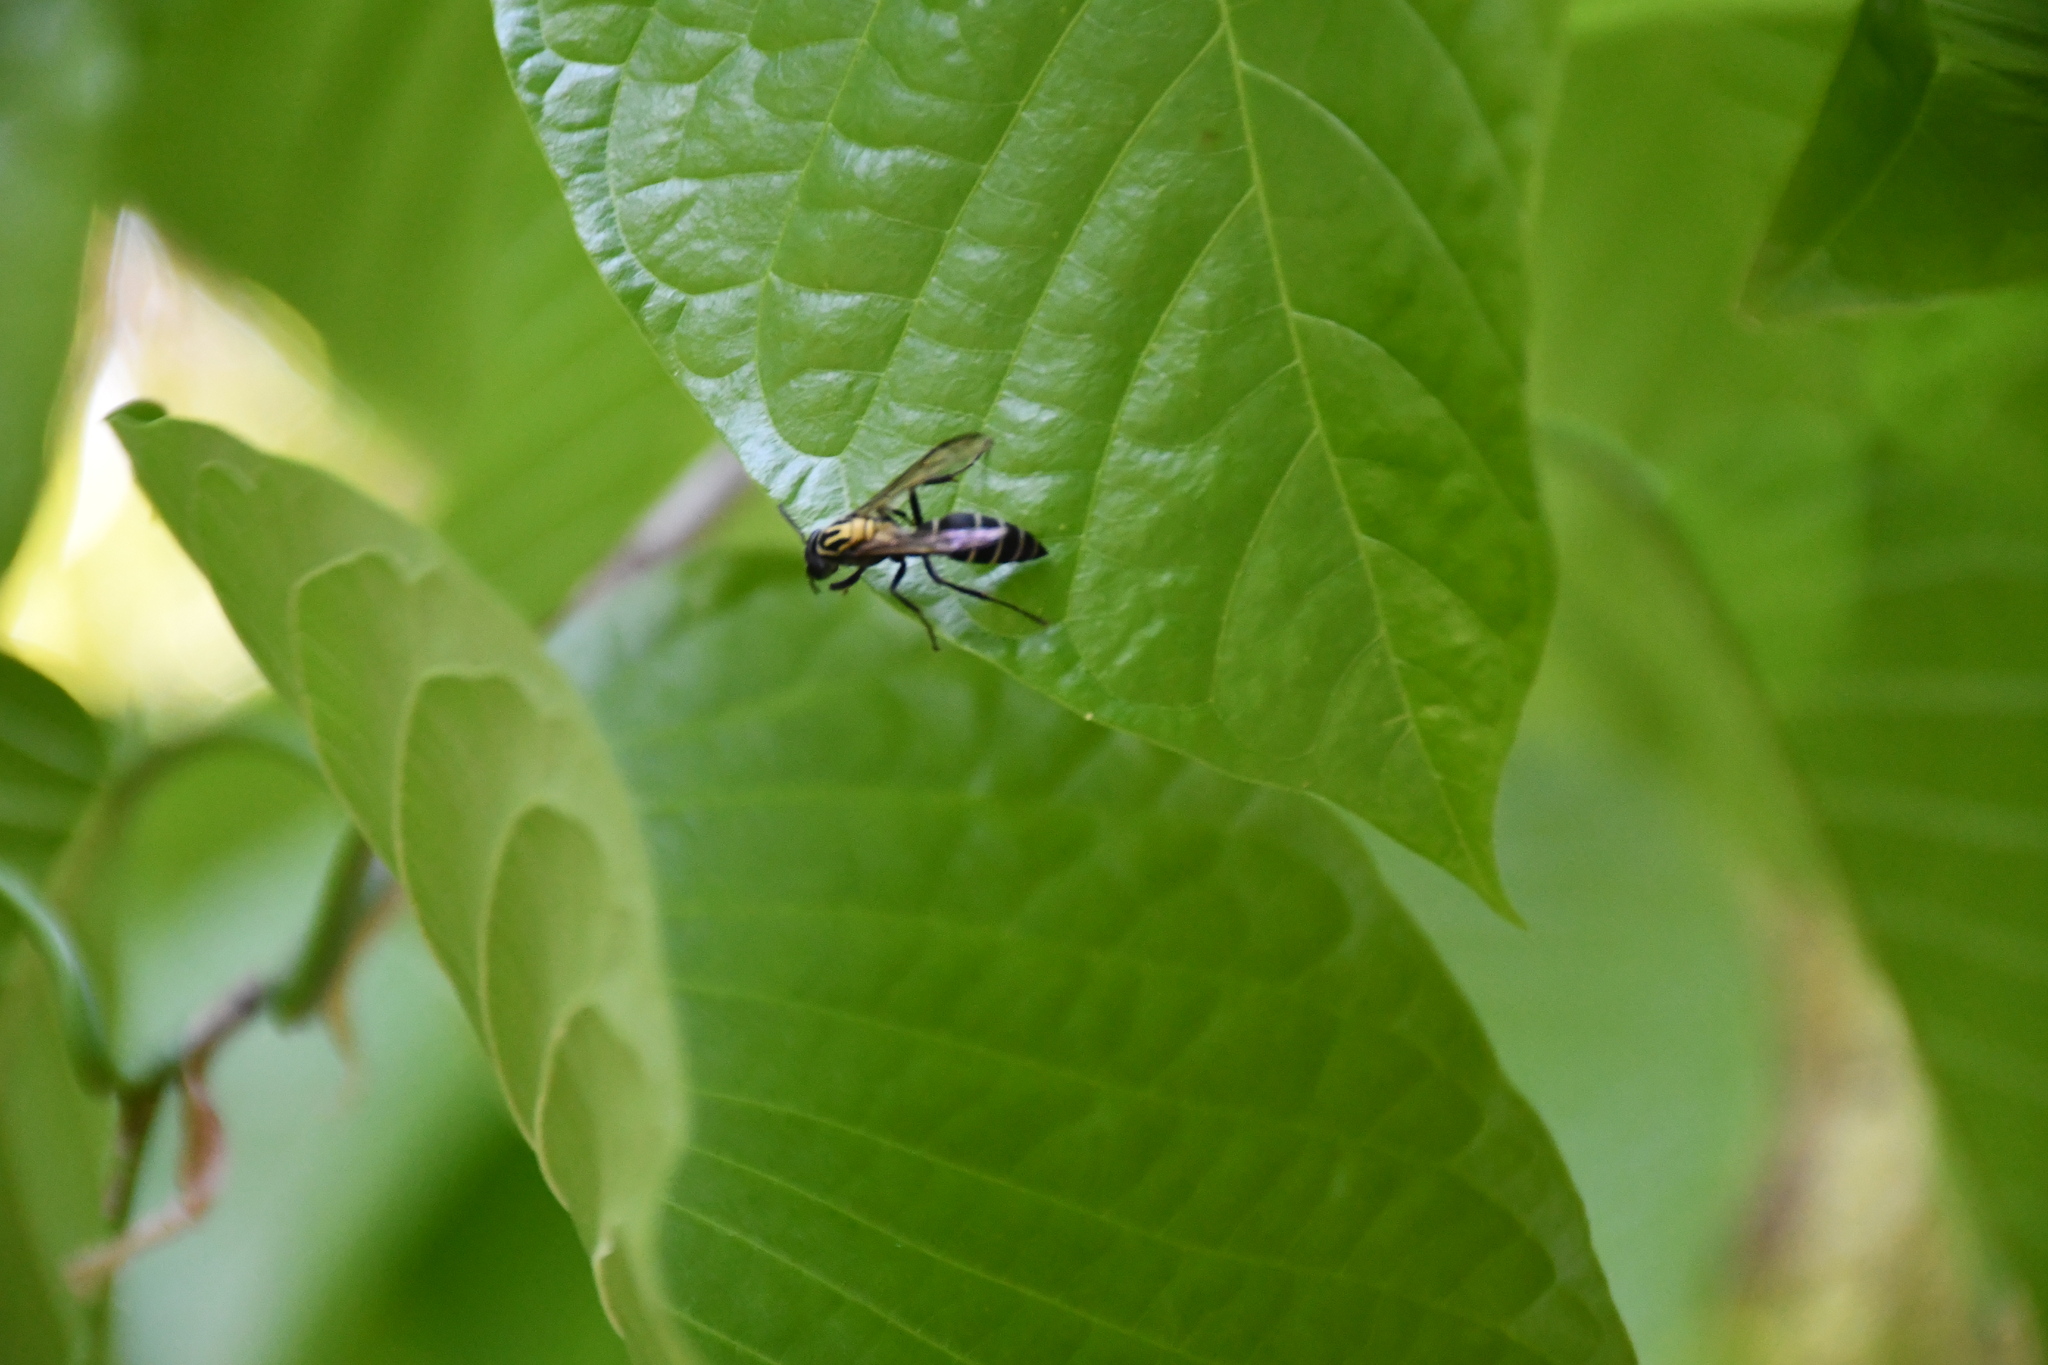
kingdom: Animalia
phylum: Arthropoda
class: Insecta
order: Hymenoptera
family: Eumenidae
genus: Polybia
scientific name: Polybia striata
